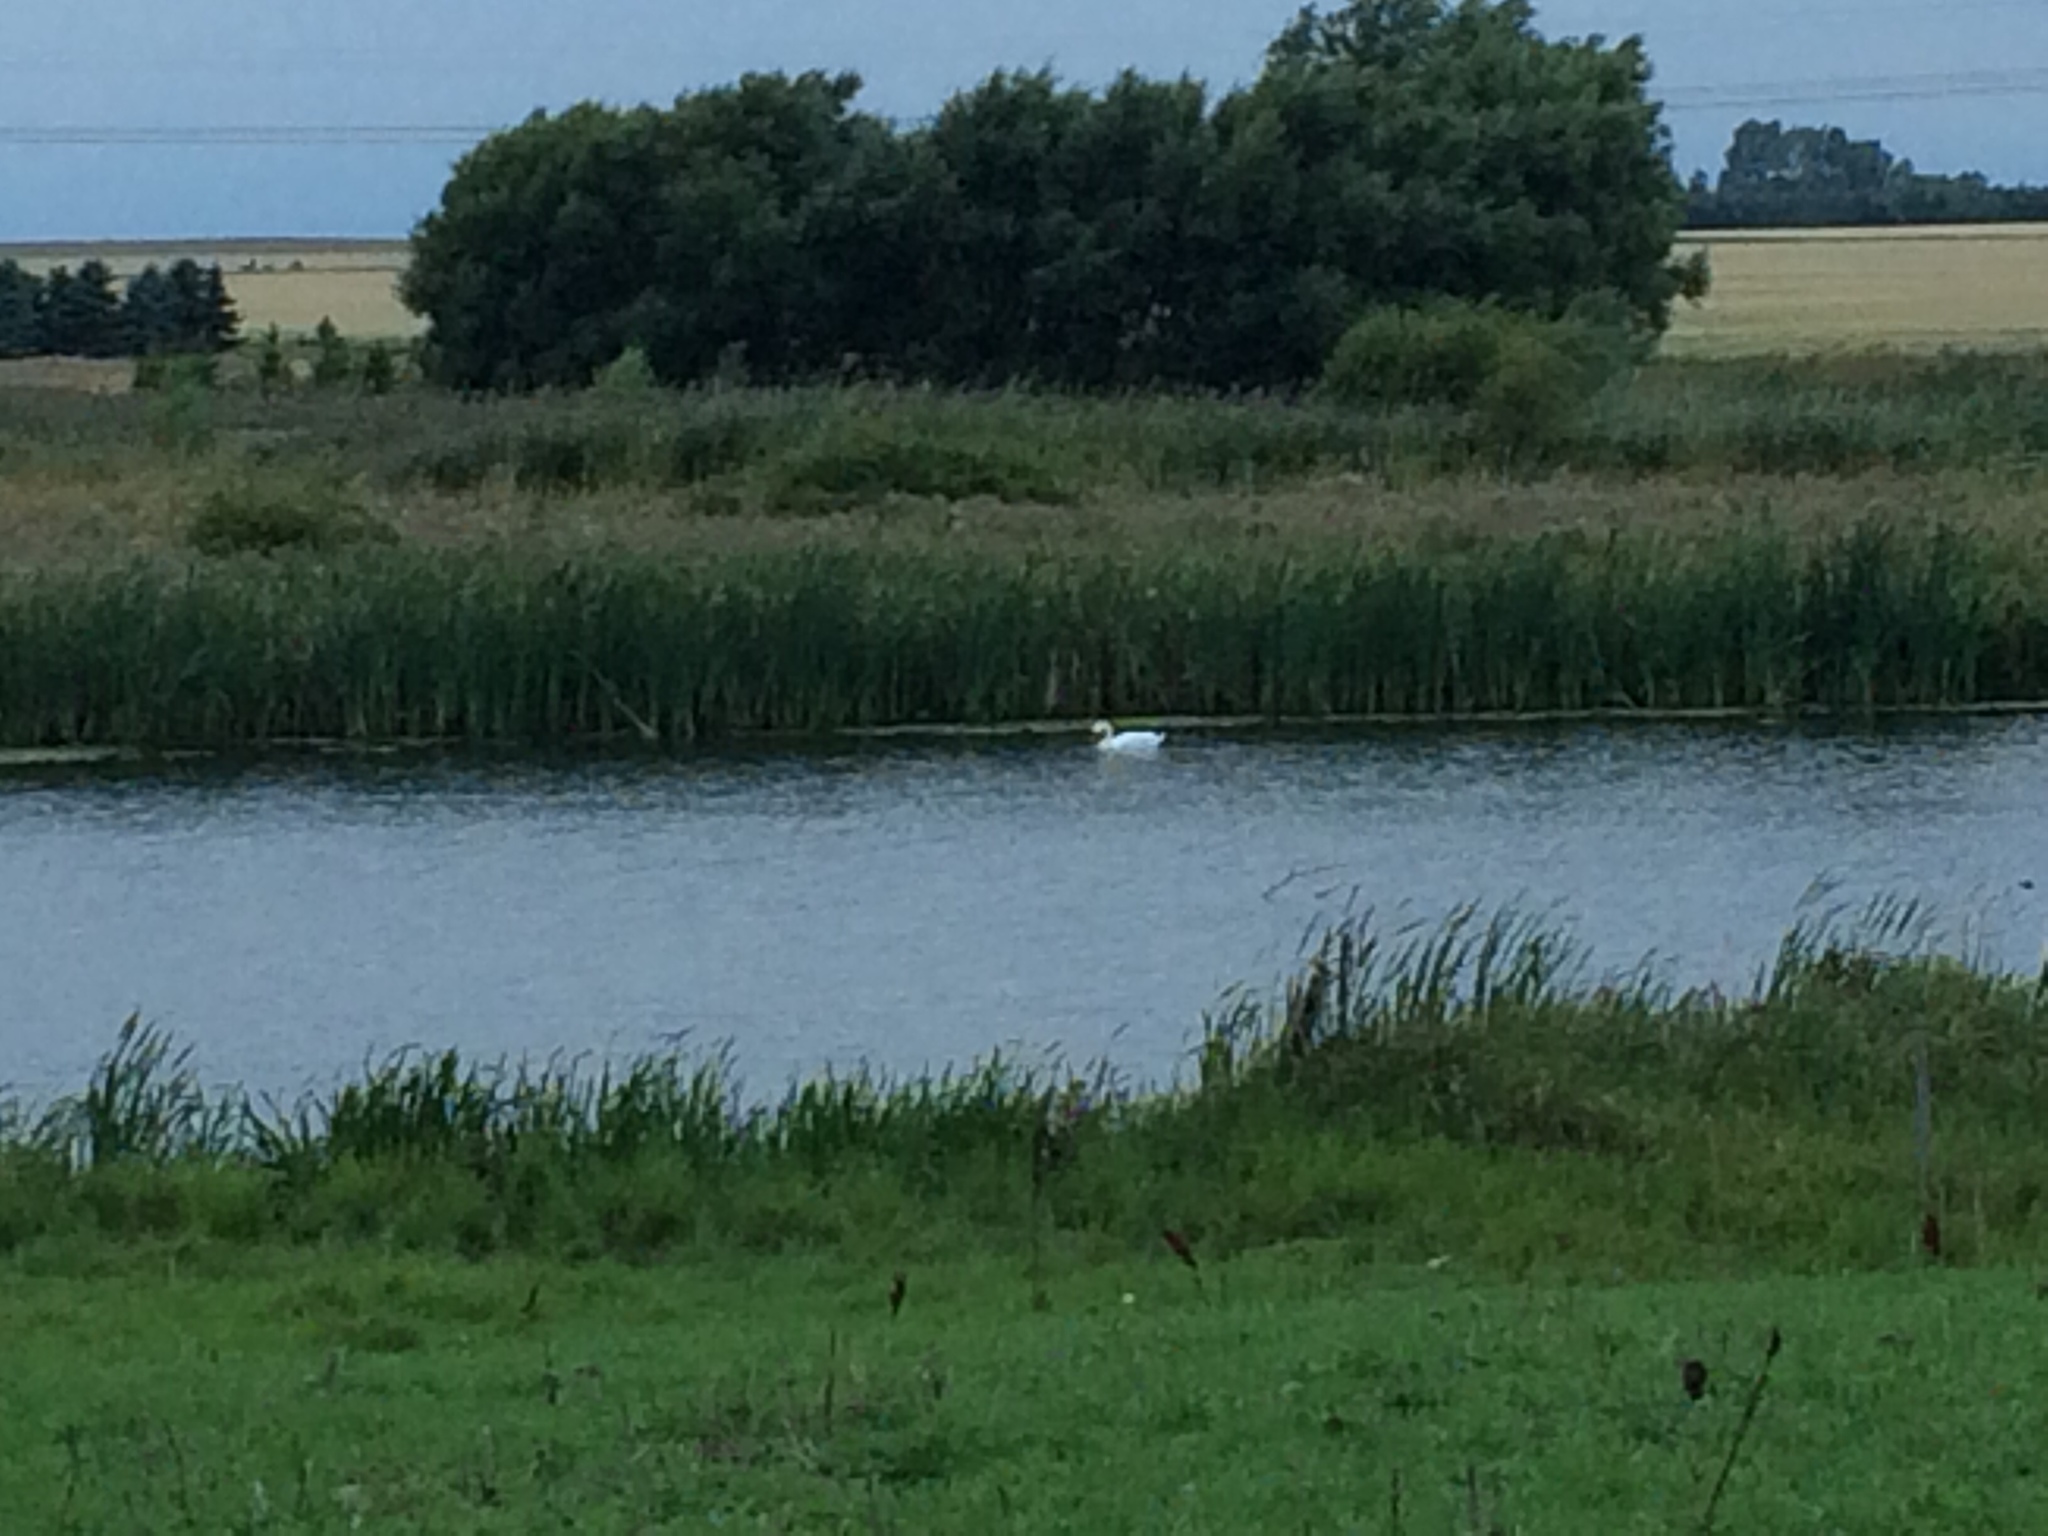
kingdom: Animalia
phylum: Chordata
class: Aves
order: Anseriformes
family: Anatidae
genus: Cygnus
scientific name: Cygnus olor
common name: Mute swan
